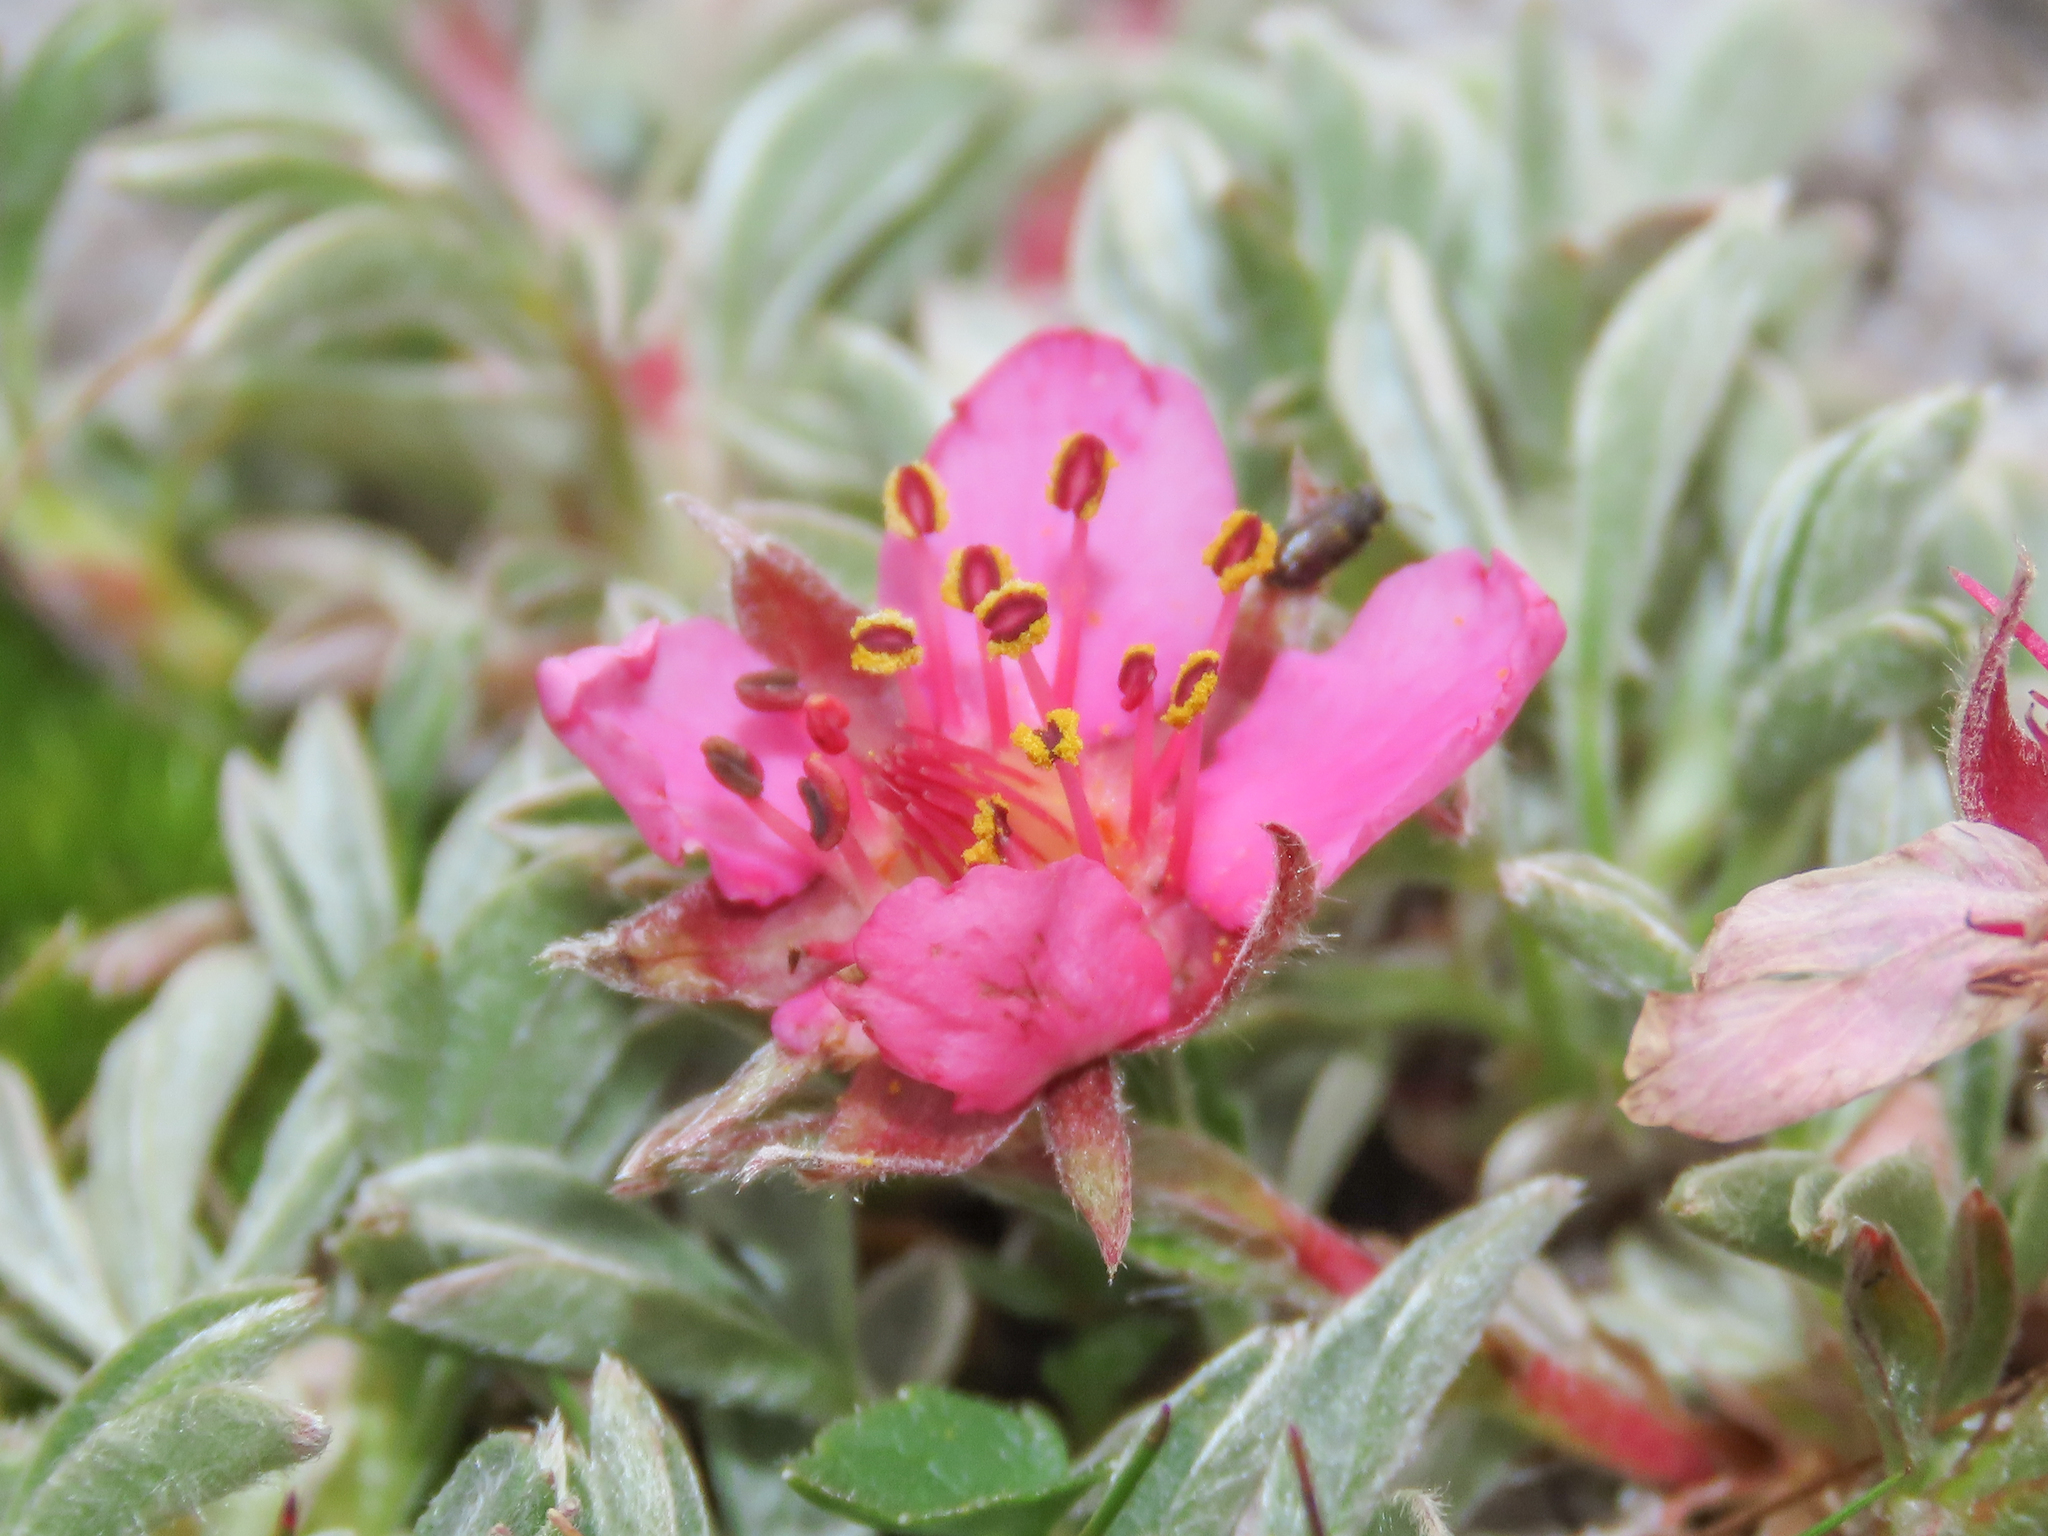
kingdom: Plantae
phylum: Tracheophyta
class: Magnoliopsida
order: Rosales
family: Rosaceae
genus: Potentilla
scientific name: Potentilla nitida
